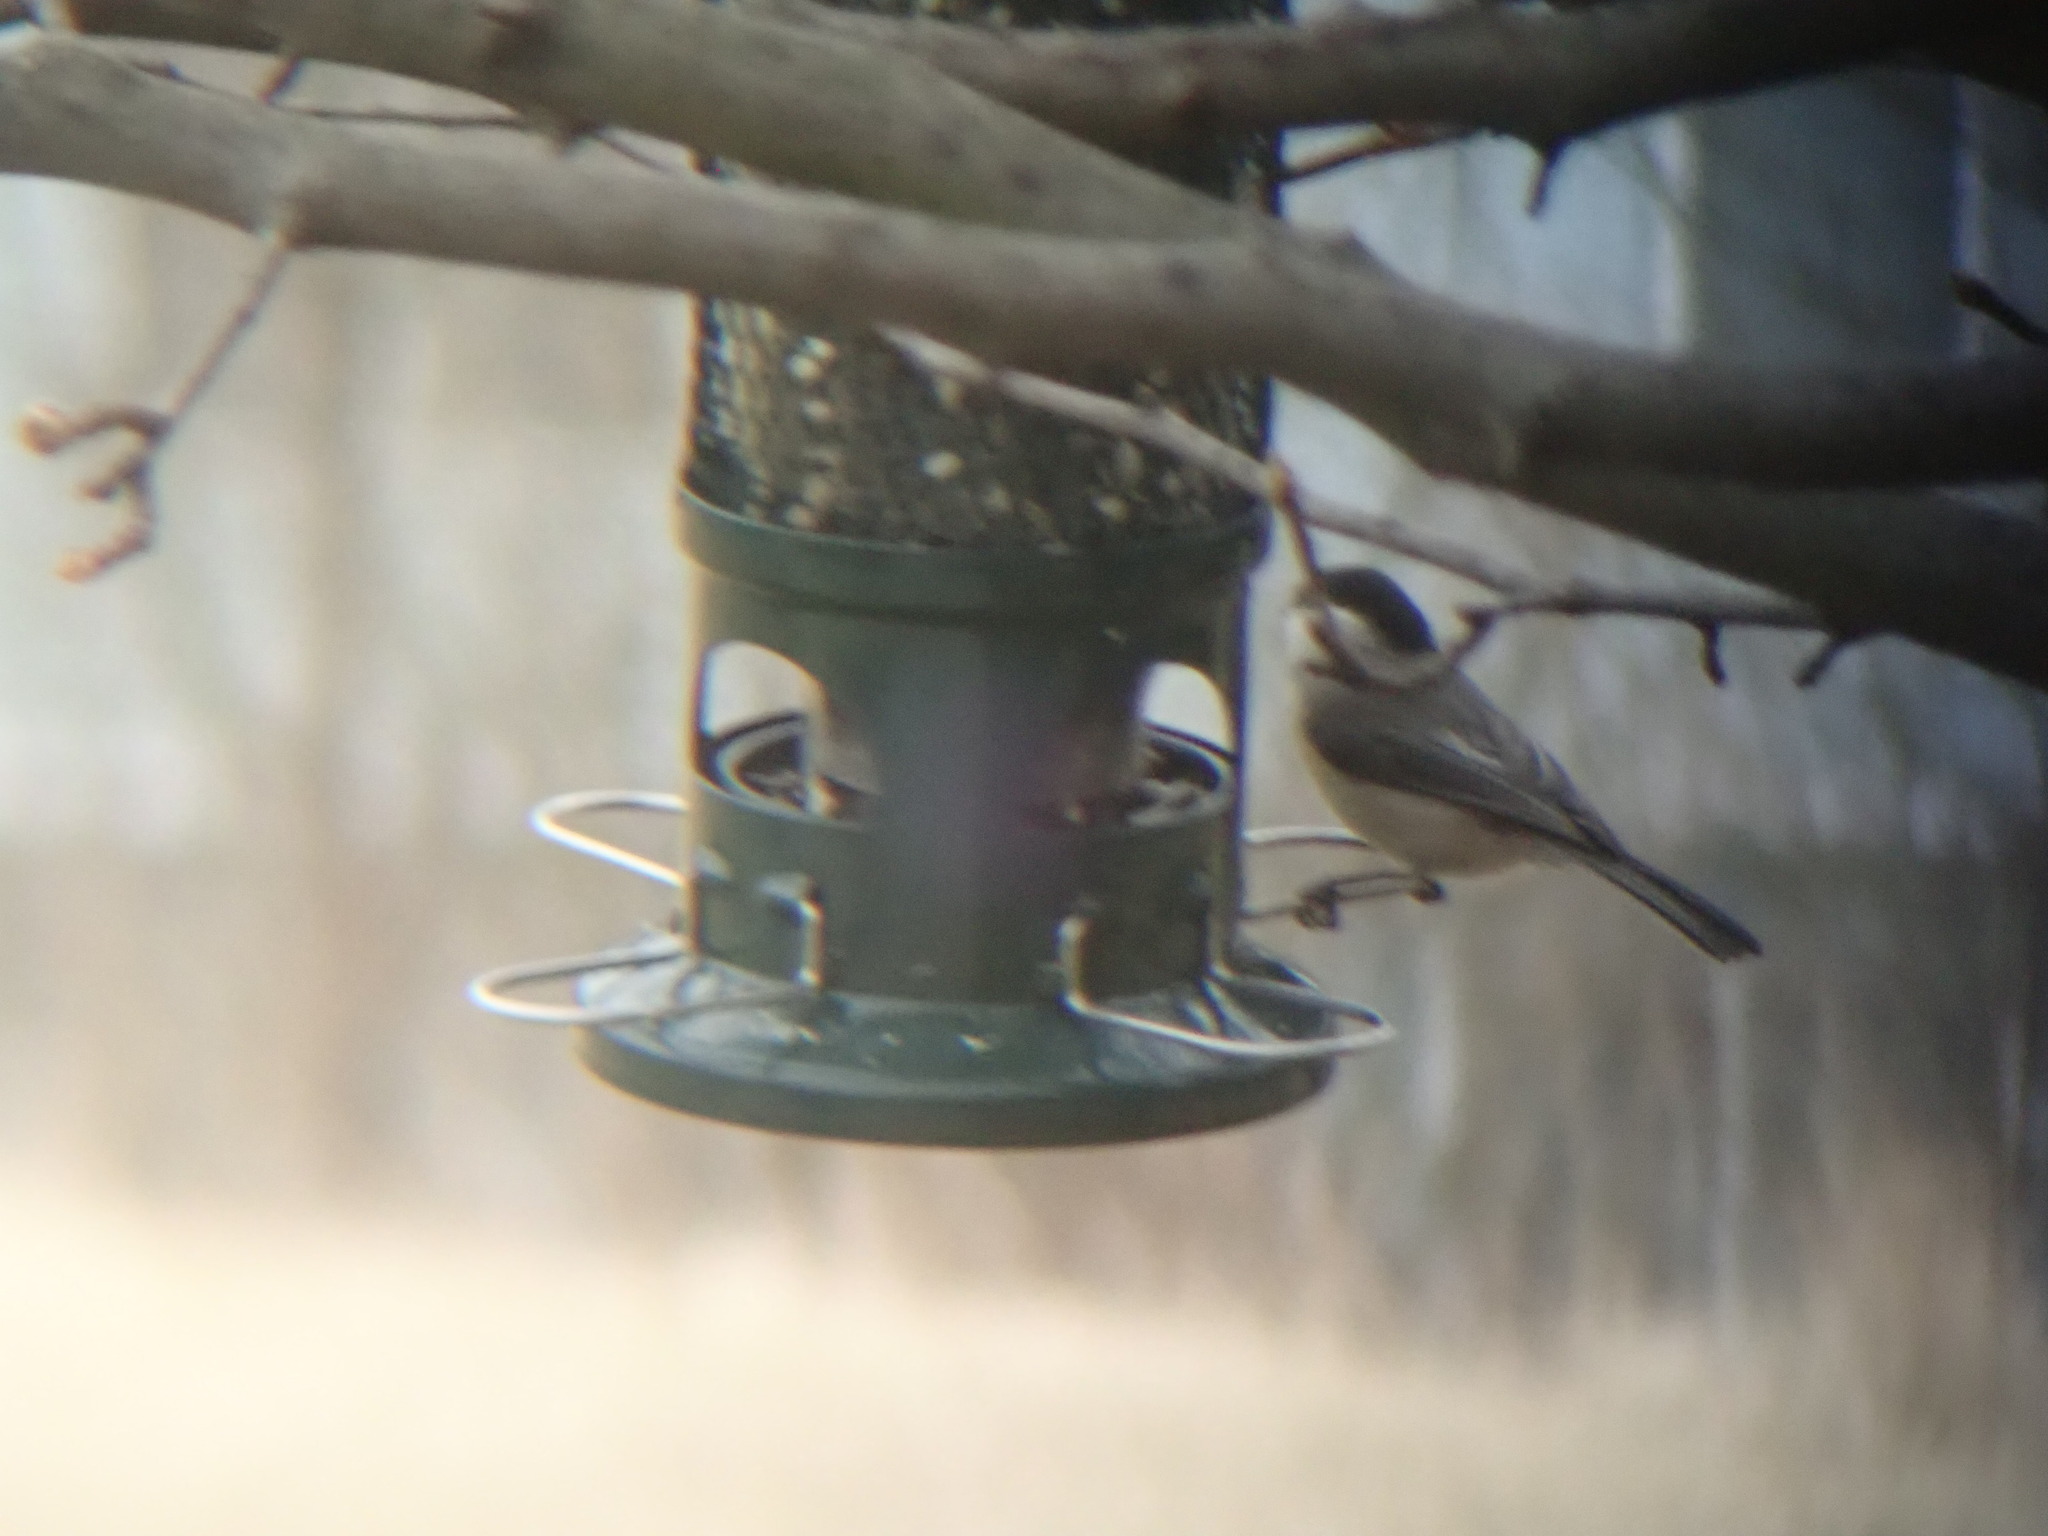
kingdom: Animalia
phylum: Chordata
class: Aves
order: Passeriformes
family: Paridae
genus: Poecile
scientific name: Poecile carolinensis
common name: Carolina chickadee
